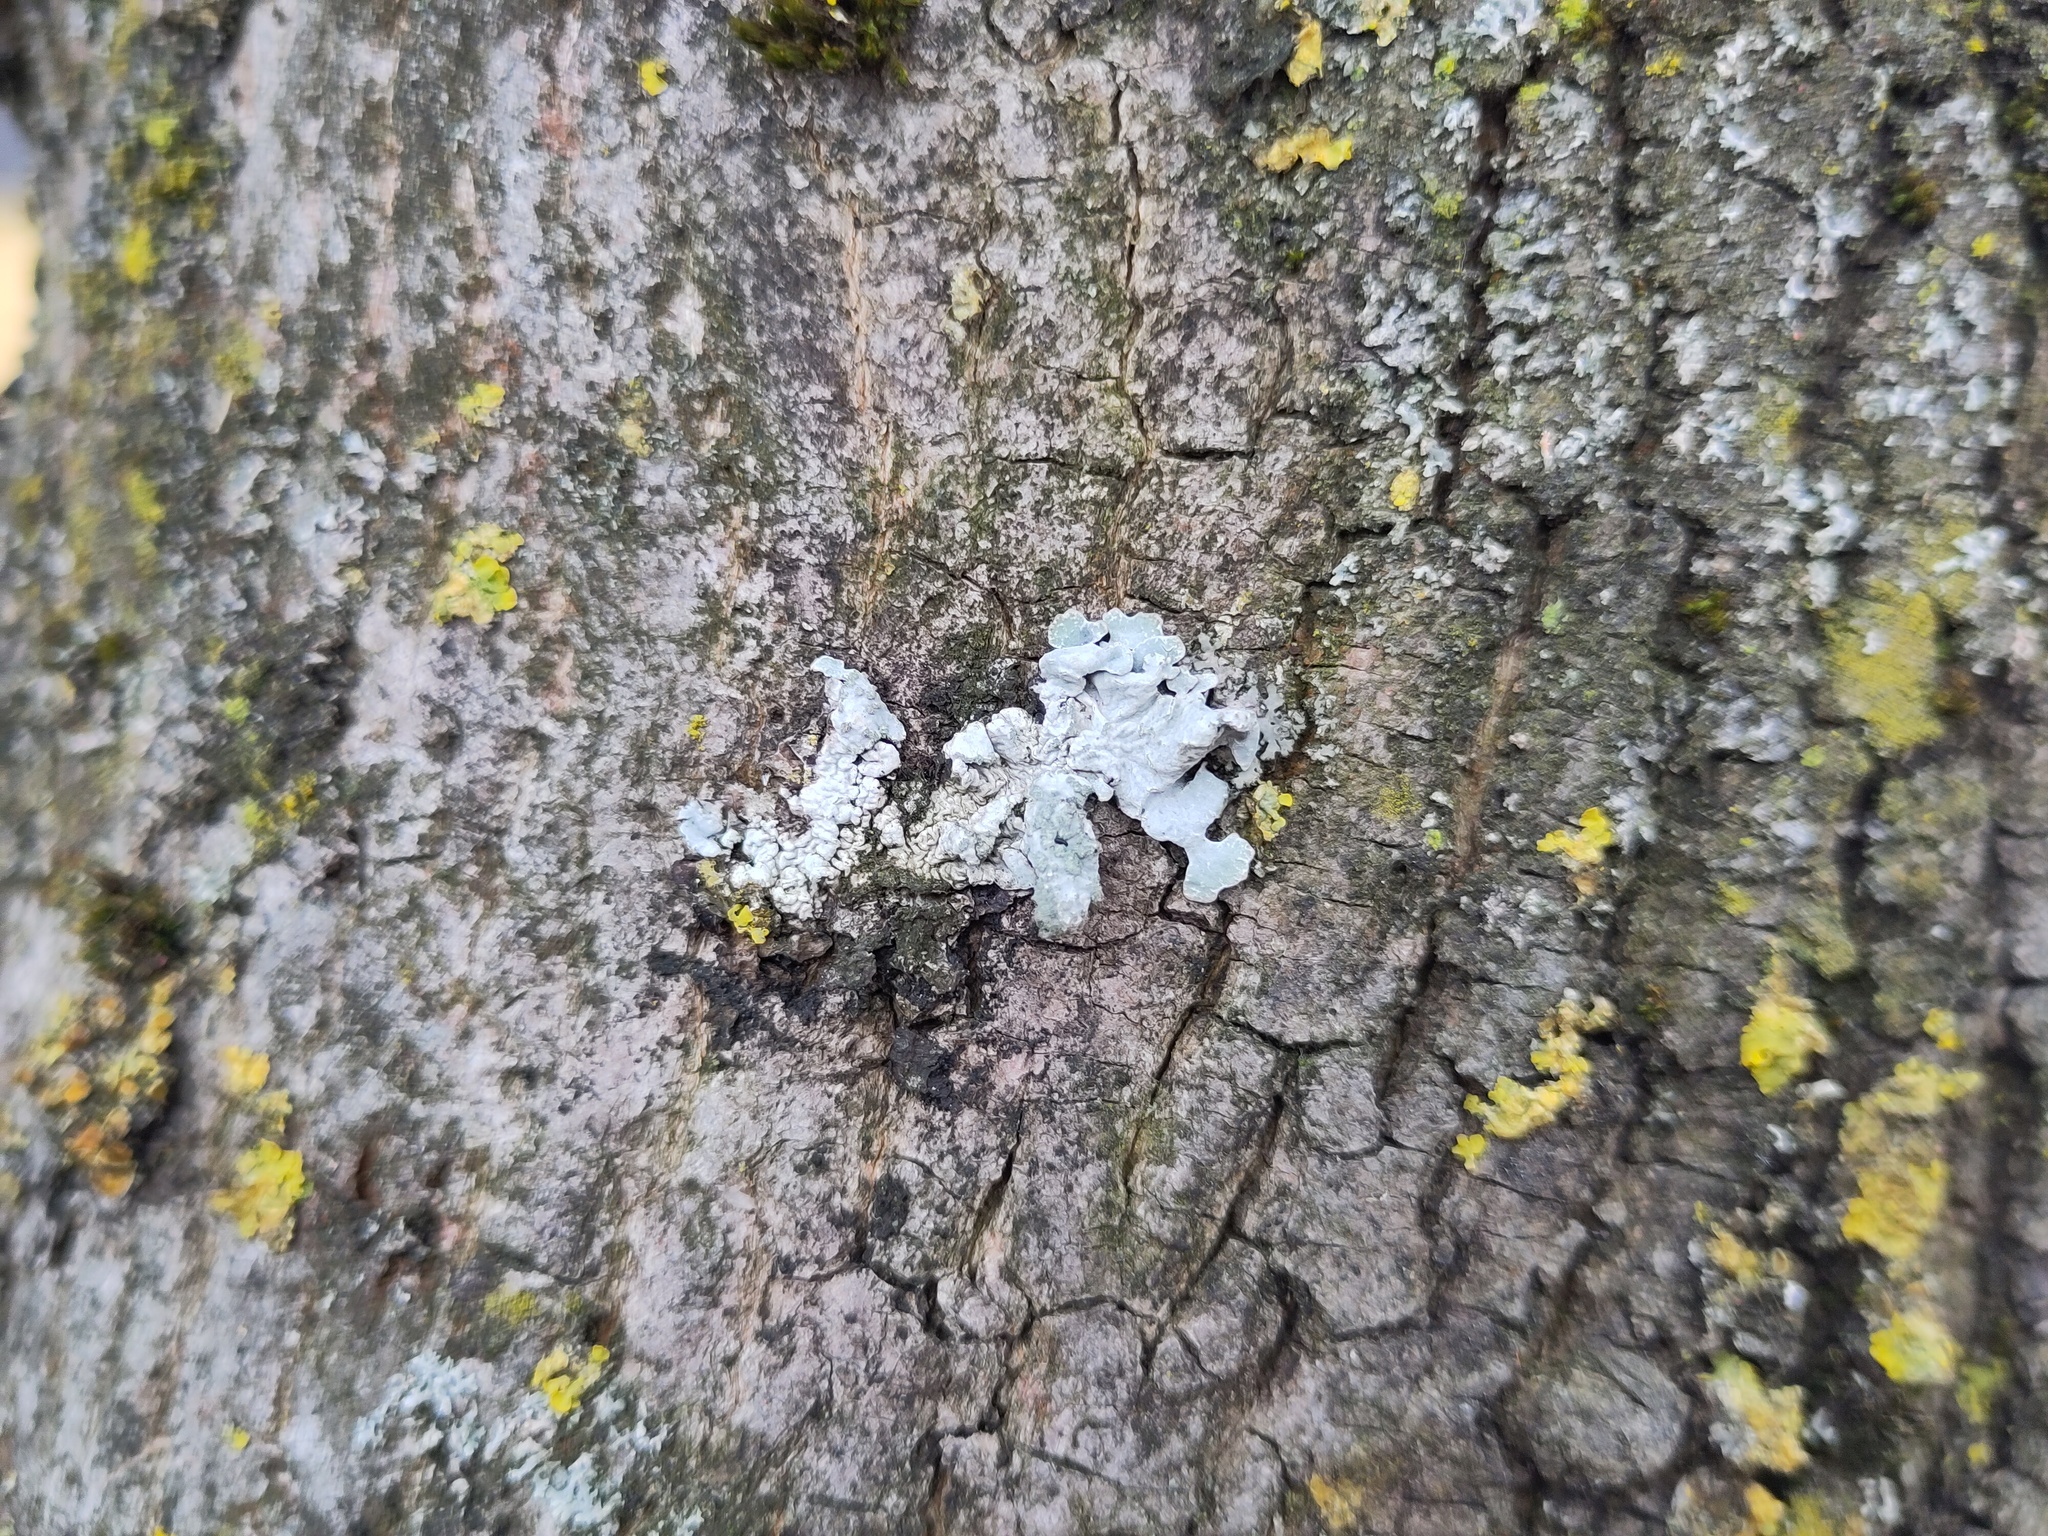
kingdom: Fungi
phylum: Ascomycota
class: Lecanoromycetes
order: Lecanorales
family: Parmeliaceae
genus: Parmelia
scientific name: Parmelia sulcata
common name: Netted shield lichen
